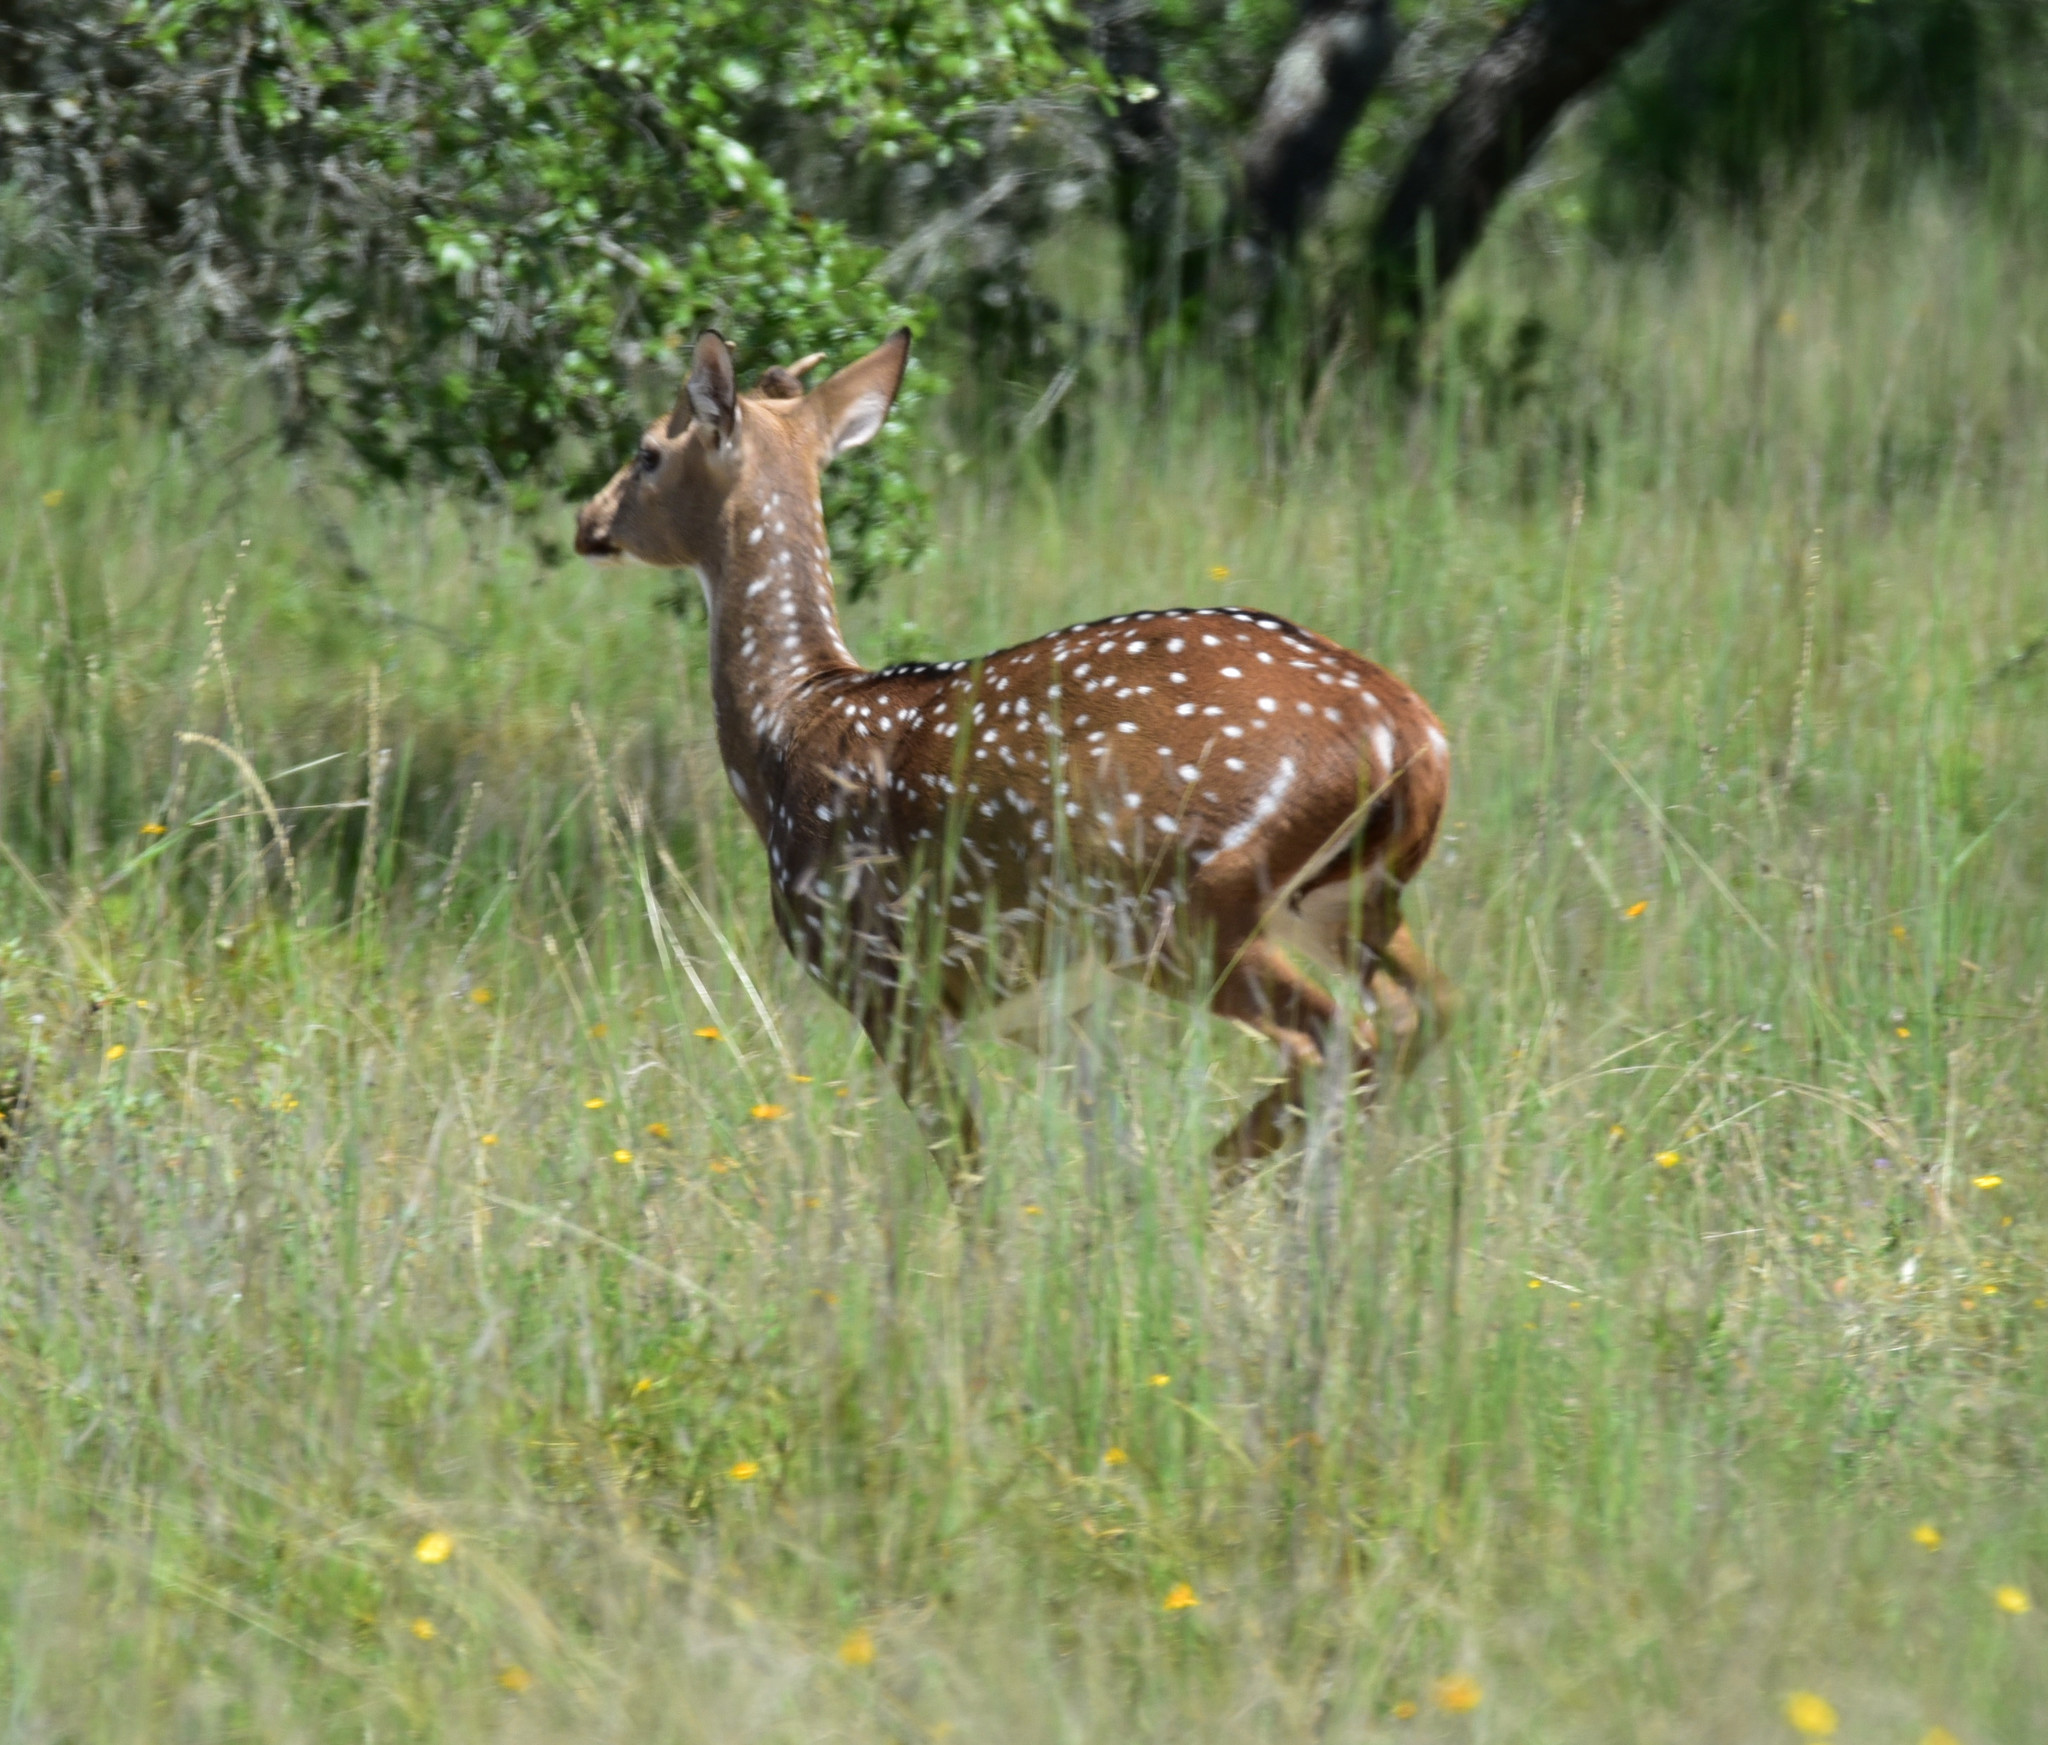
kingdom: Animalia
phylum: Chordata
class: Mammalia
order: Artiodactyla
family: Cervidae
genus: Axis
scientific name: Axis axis
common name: Chital
